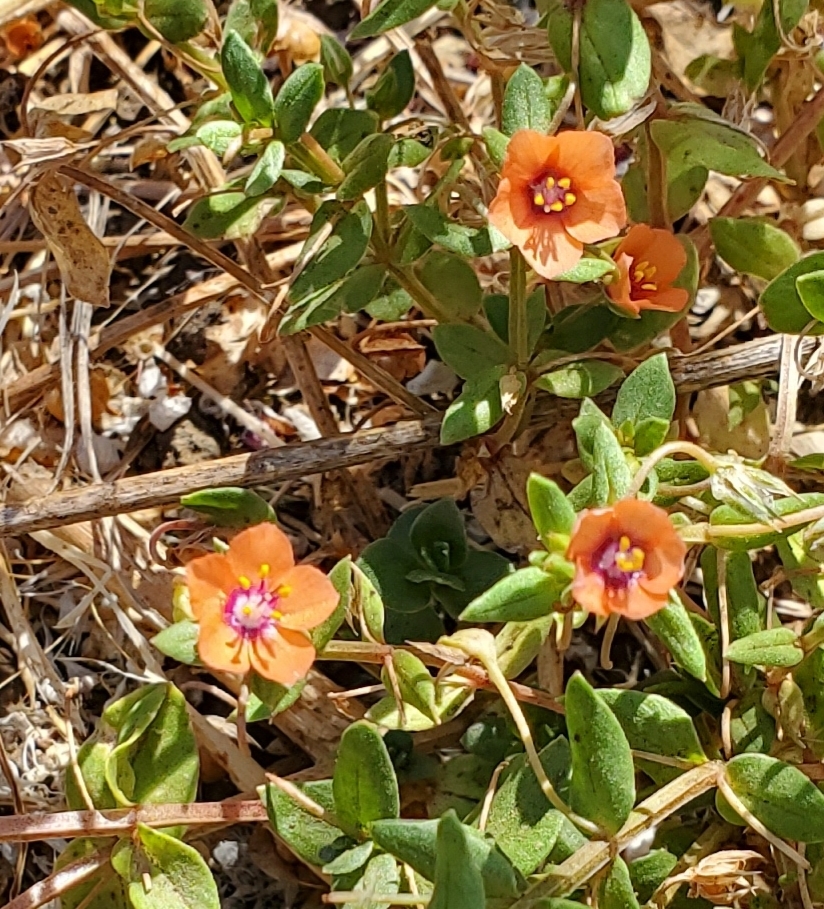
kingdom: Plantae
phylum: Tracheophyta
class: Magnoliopsida
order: Ericales
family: Primulaceae
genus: Lysimachia
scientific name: Lysimachia arvensis
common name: Scarlet pimpernel
